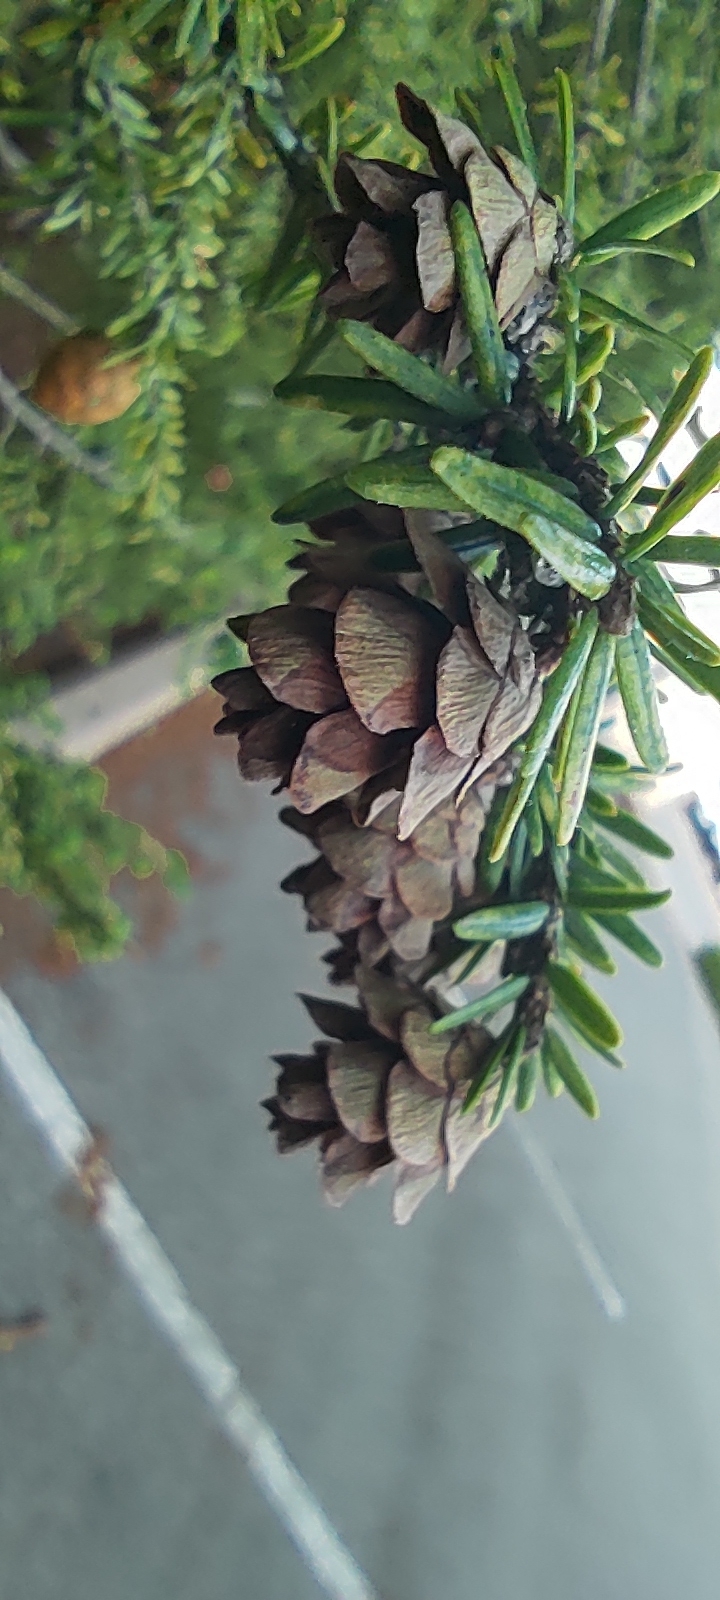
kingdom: Plantae
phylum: Tracheophyta
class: Pinopsida
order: Pinales
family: Pinaceae
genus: Tsuga
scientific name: Tsuga canadensis
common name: Eastern hemlock
